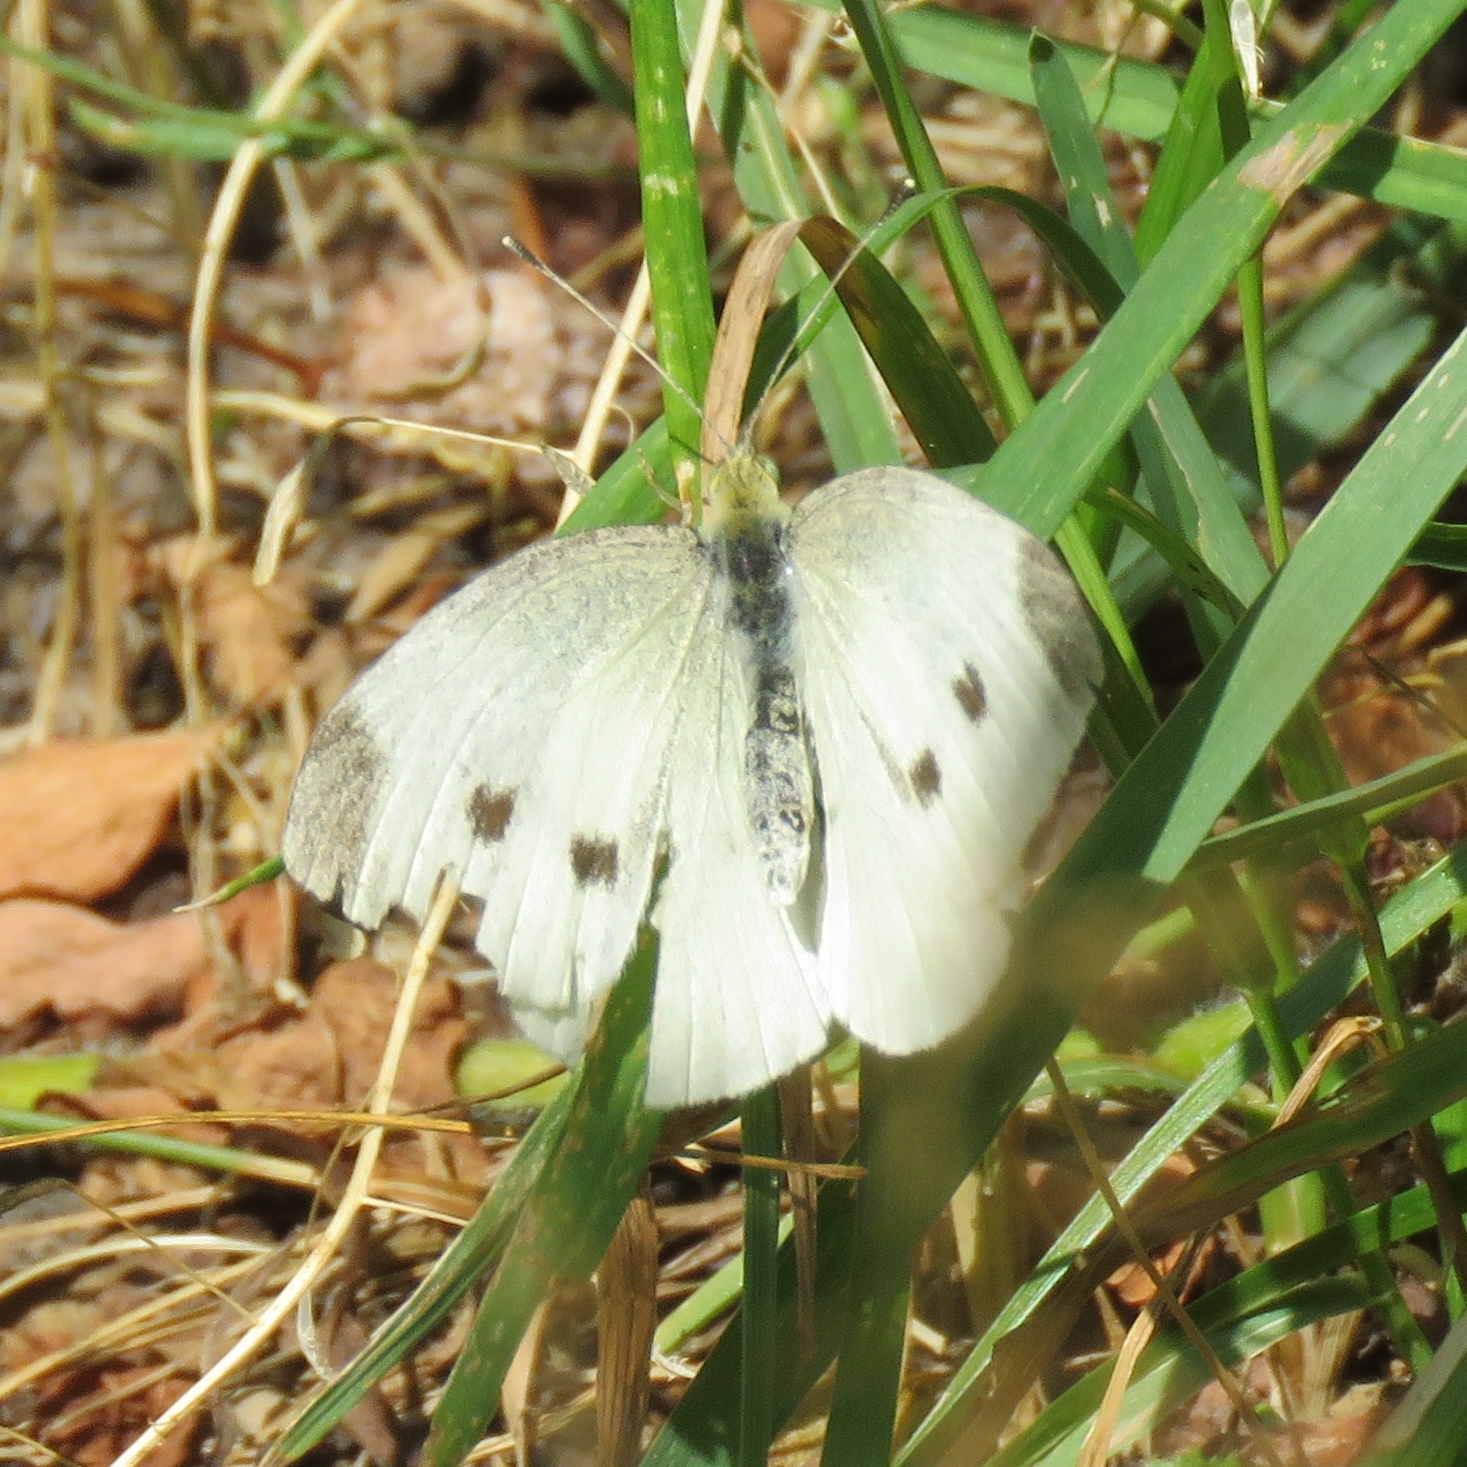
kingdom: Animalia
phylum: Arthropoda
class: Insecta
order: Lepidoptera
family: Pieridae
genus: Pieris
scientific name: Pieris rapae
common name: Small white
